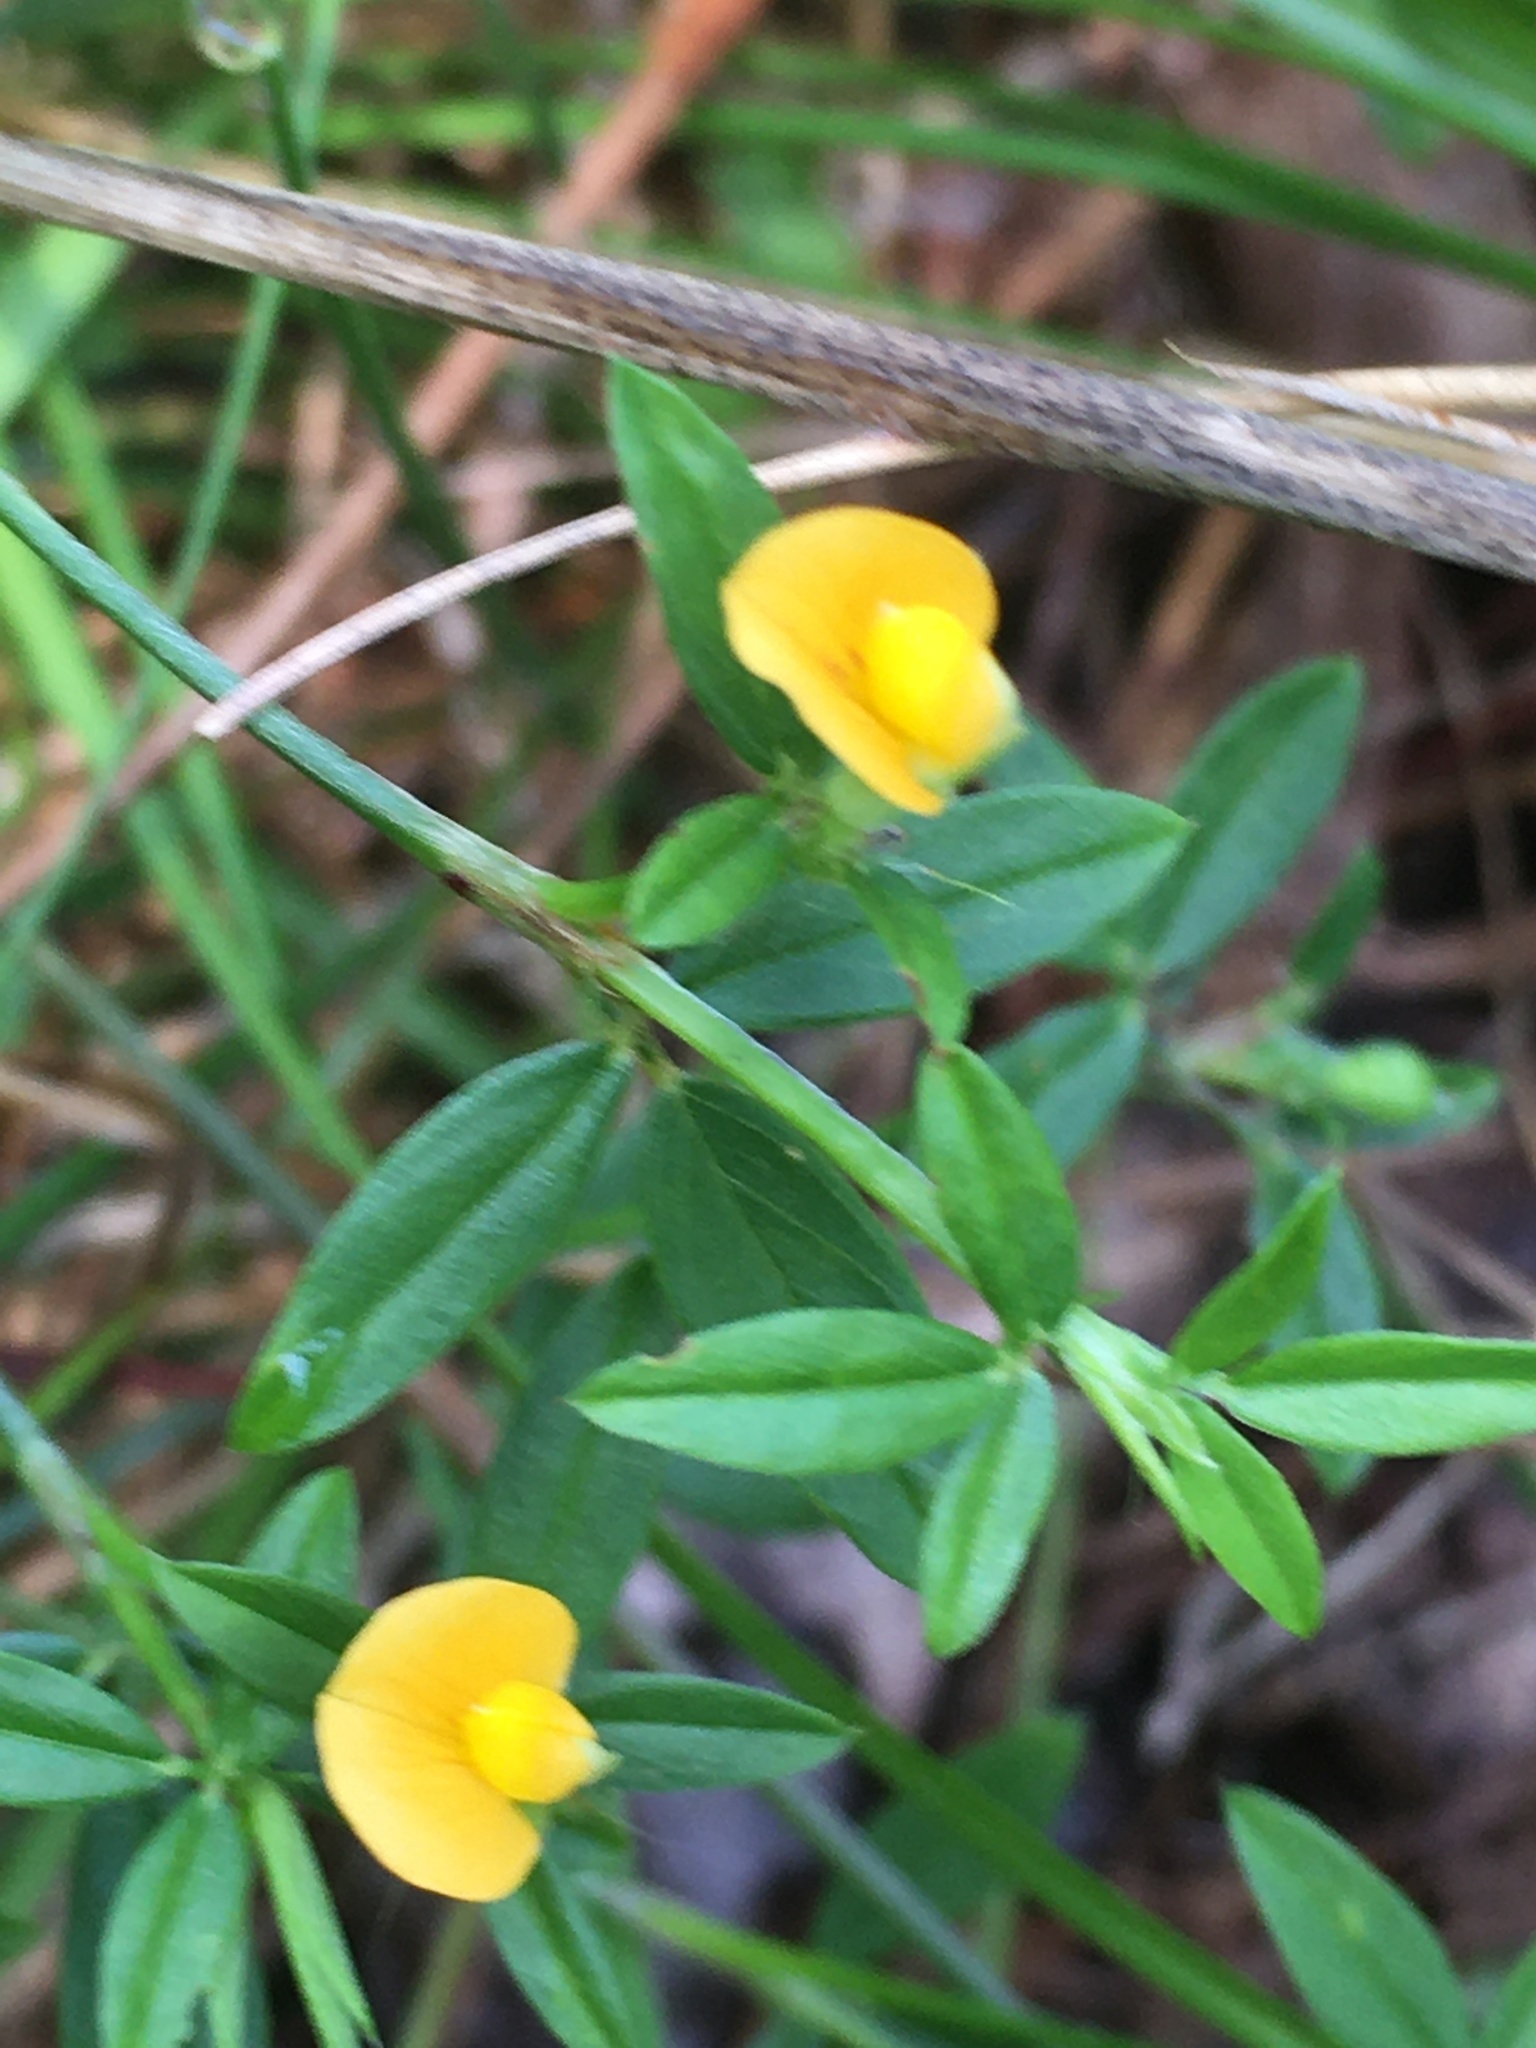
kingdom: Plantae
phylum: Tracheophyta
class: Magnoliopsida
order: Fabales
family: Fabaceae
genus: Stylosanthes
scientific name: Stylosanthes biflora
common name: Two-flower pencil-flower
